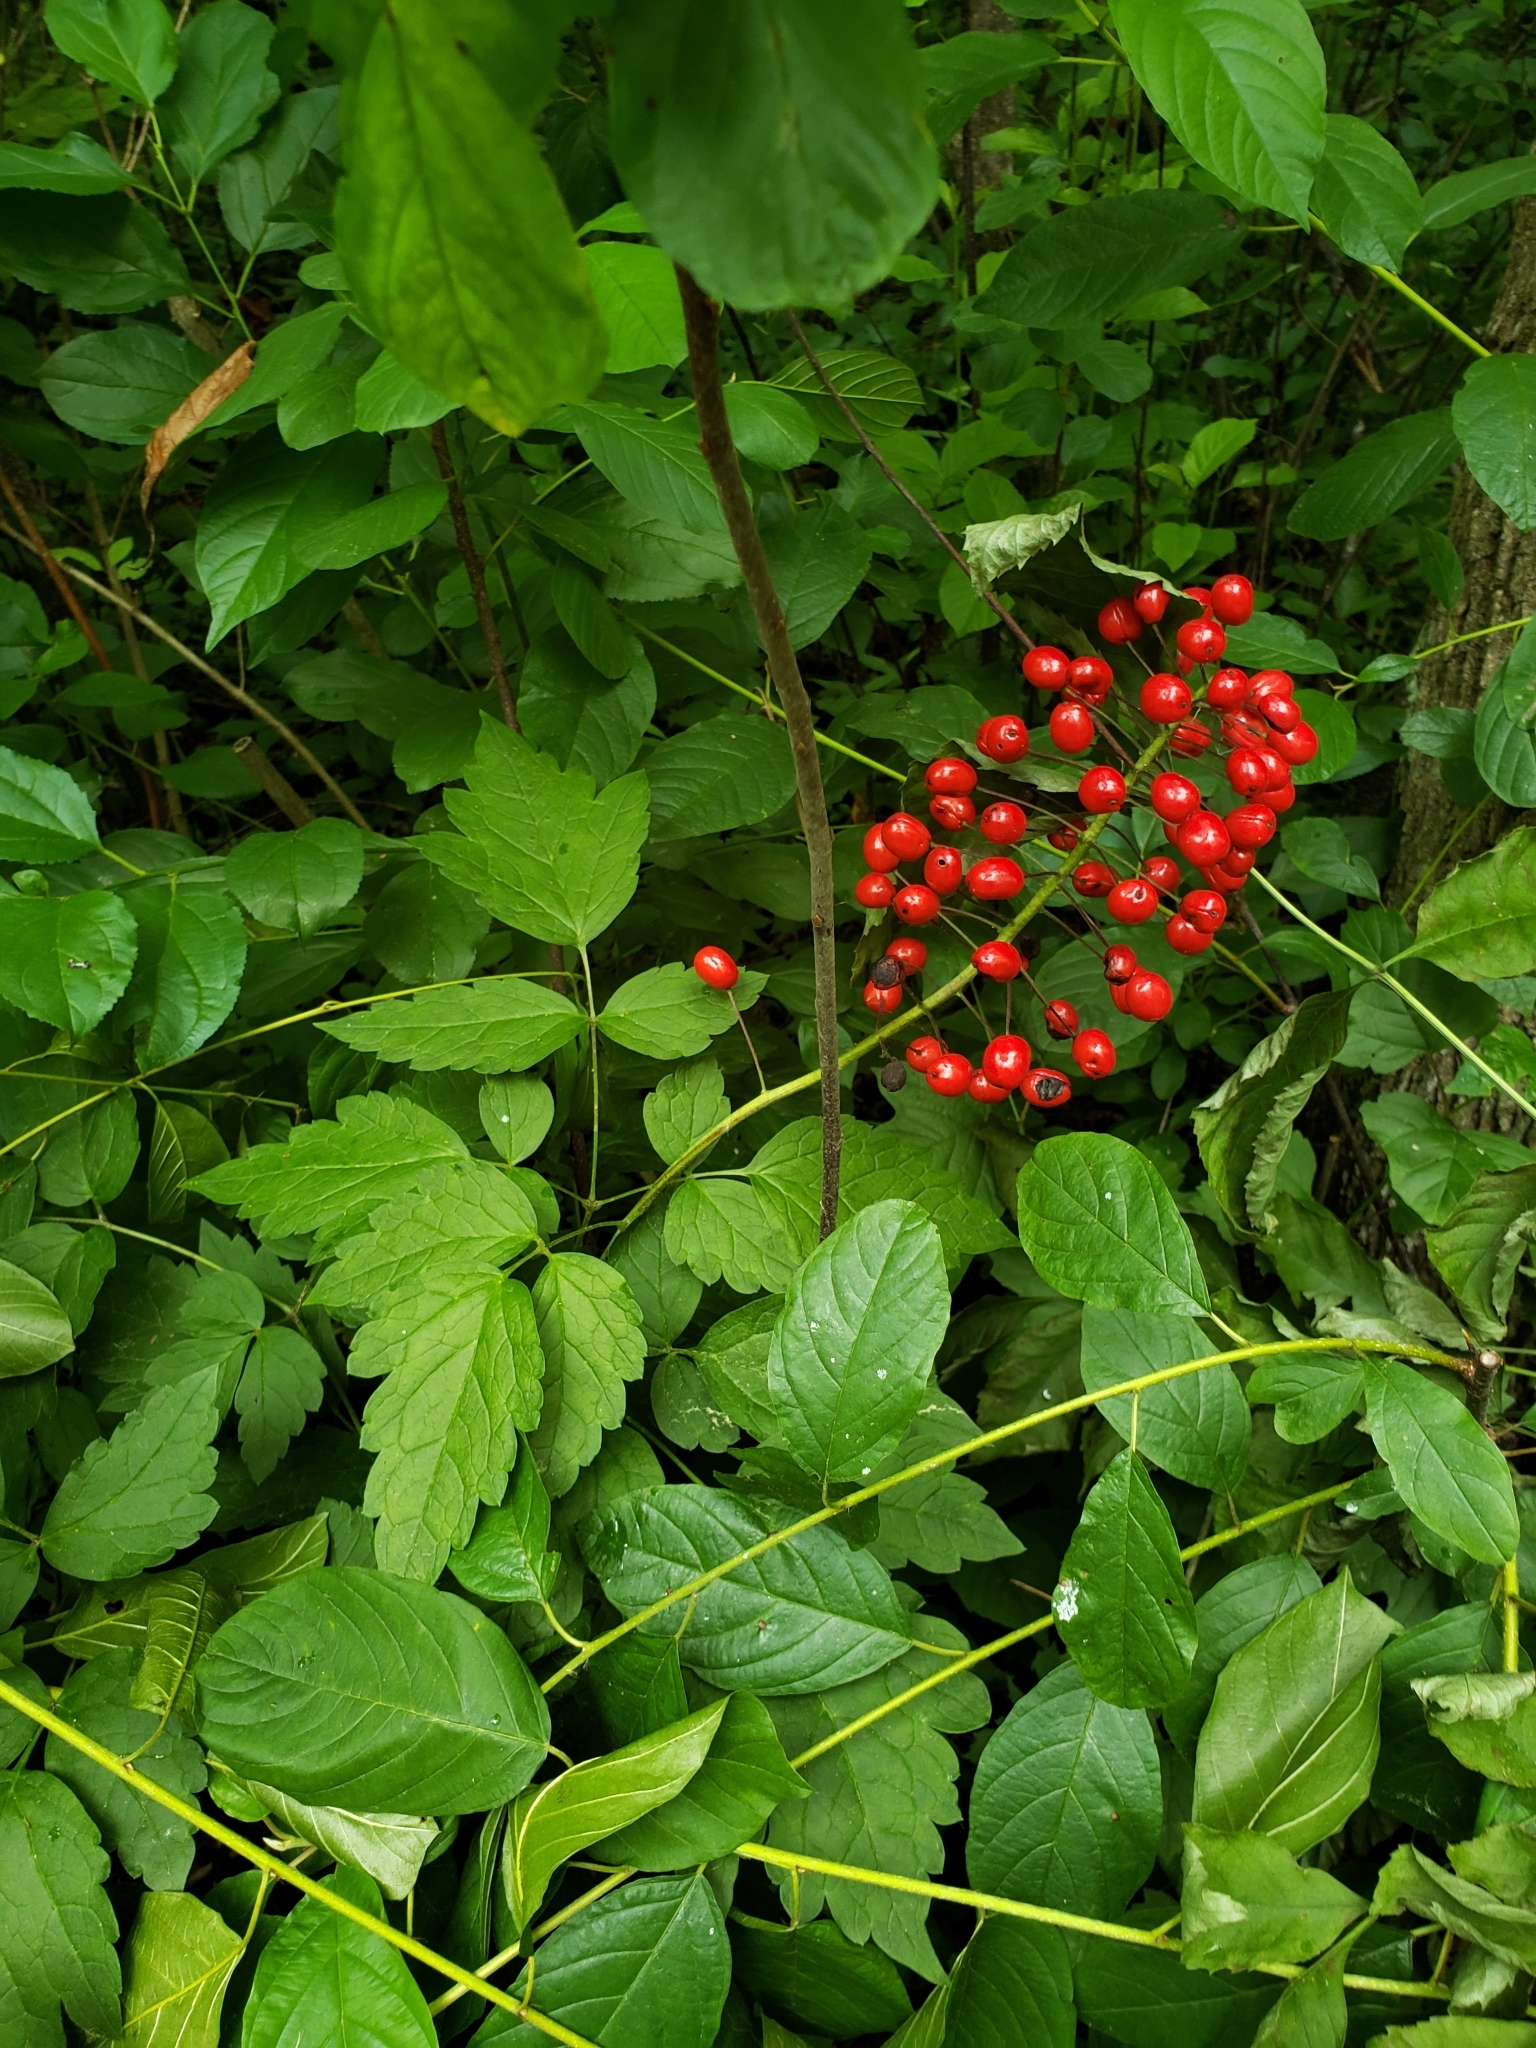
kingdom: Plantae
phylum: Tracheophyta
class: Magnoliopsida
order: Ranunculales
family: Ranunculaceae
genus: Actaea
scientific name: Actaea rubra
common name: Red baneberry
